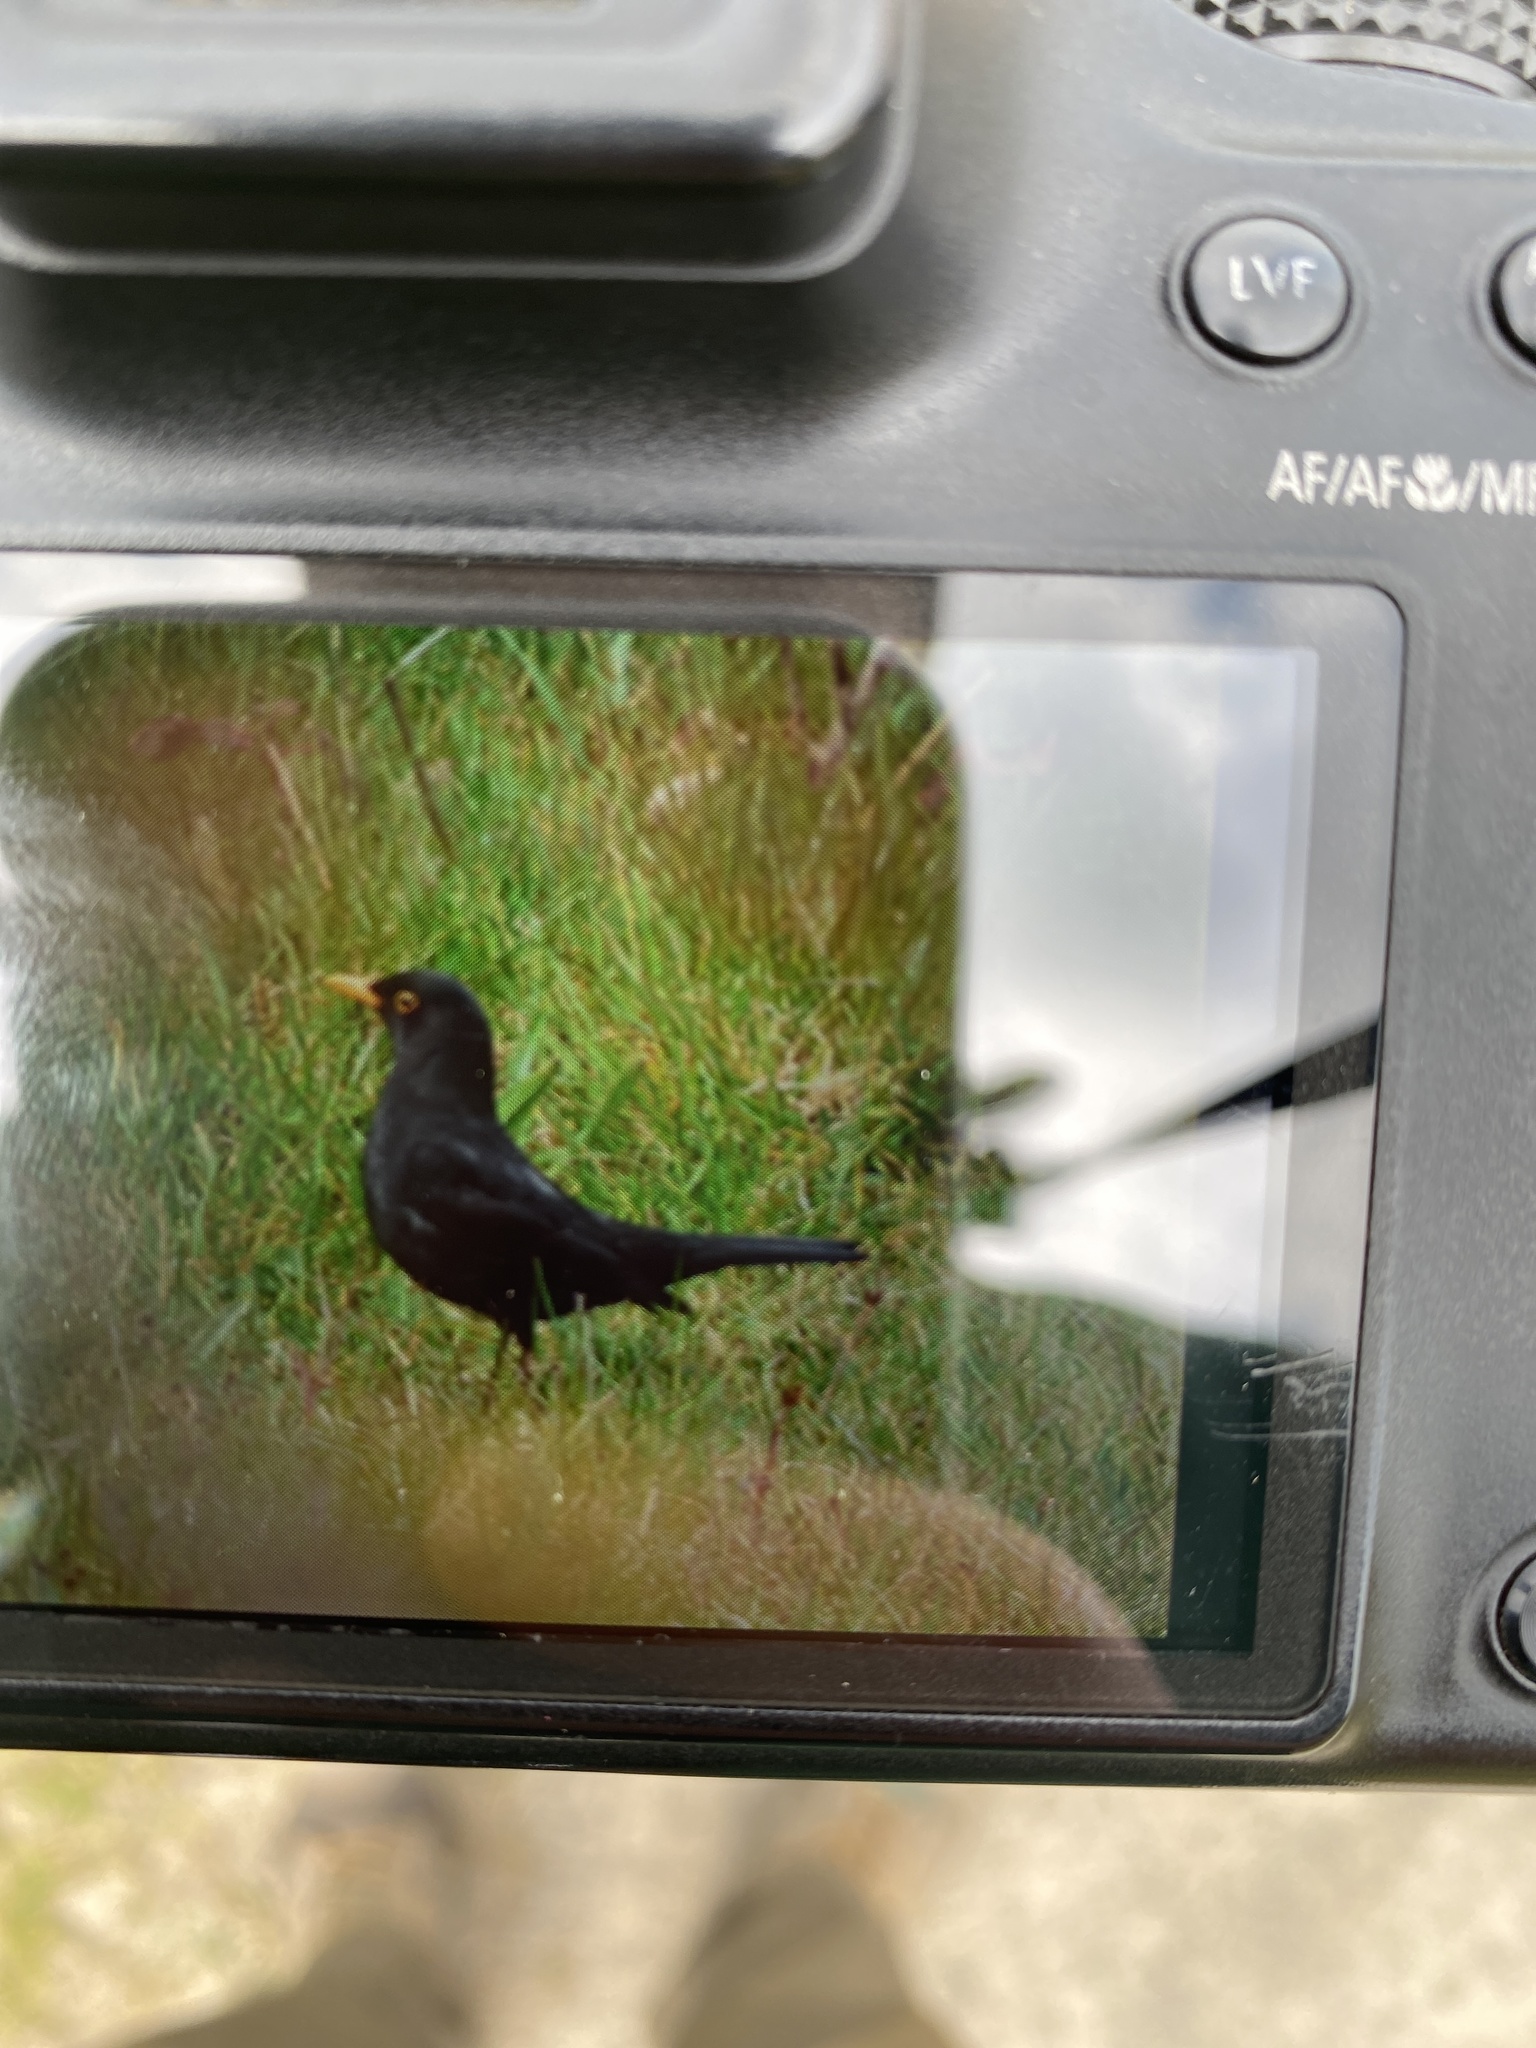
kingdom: Animalia
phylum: Chordata
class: Aves
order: Passeriformes
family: Turdidae
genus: Turdus
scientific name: Turdus merula
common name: Common blackbird
